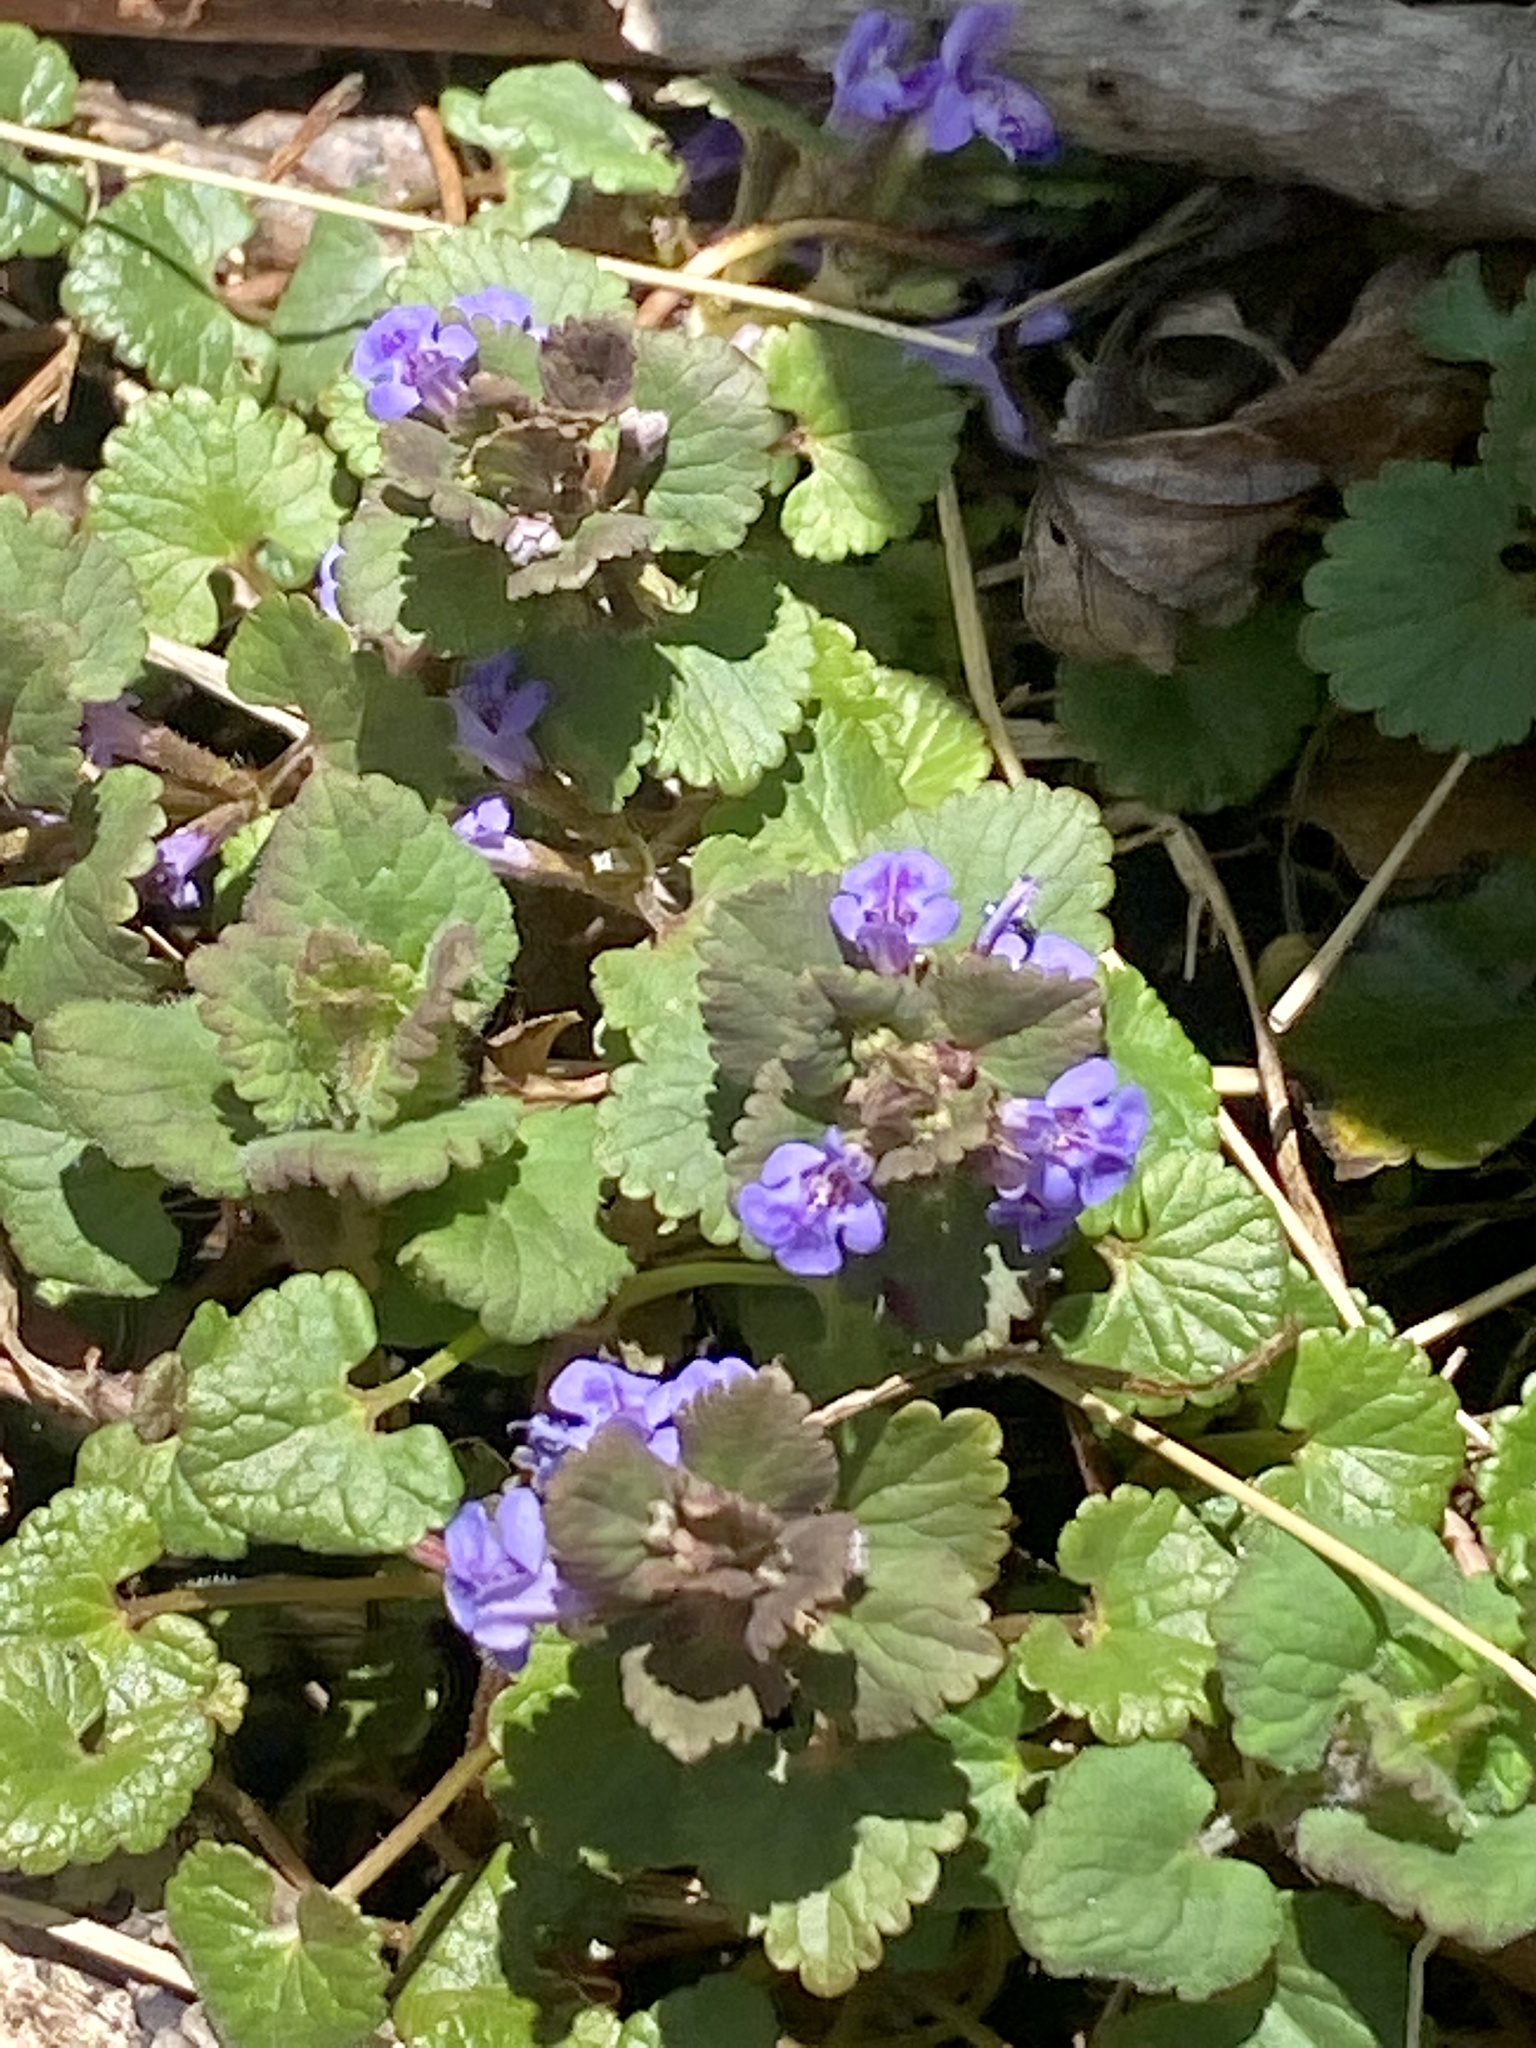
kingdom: Plantae
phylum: Tracheophyta
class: Magnoliopsida
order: Lamiales
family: Lamiaceae
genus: Glechoma
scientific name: Glechoma hederacea
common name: Ground ivy
